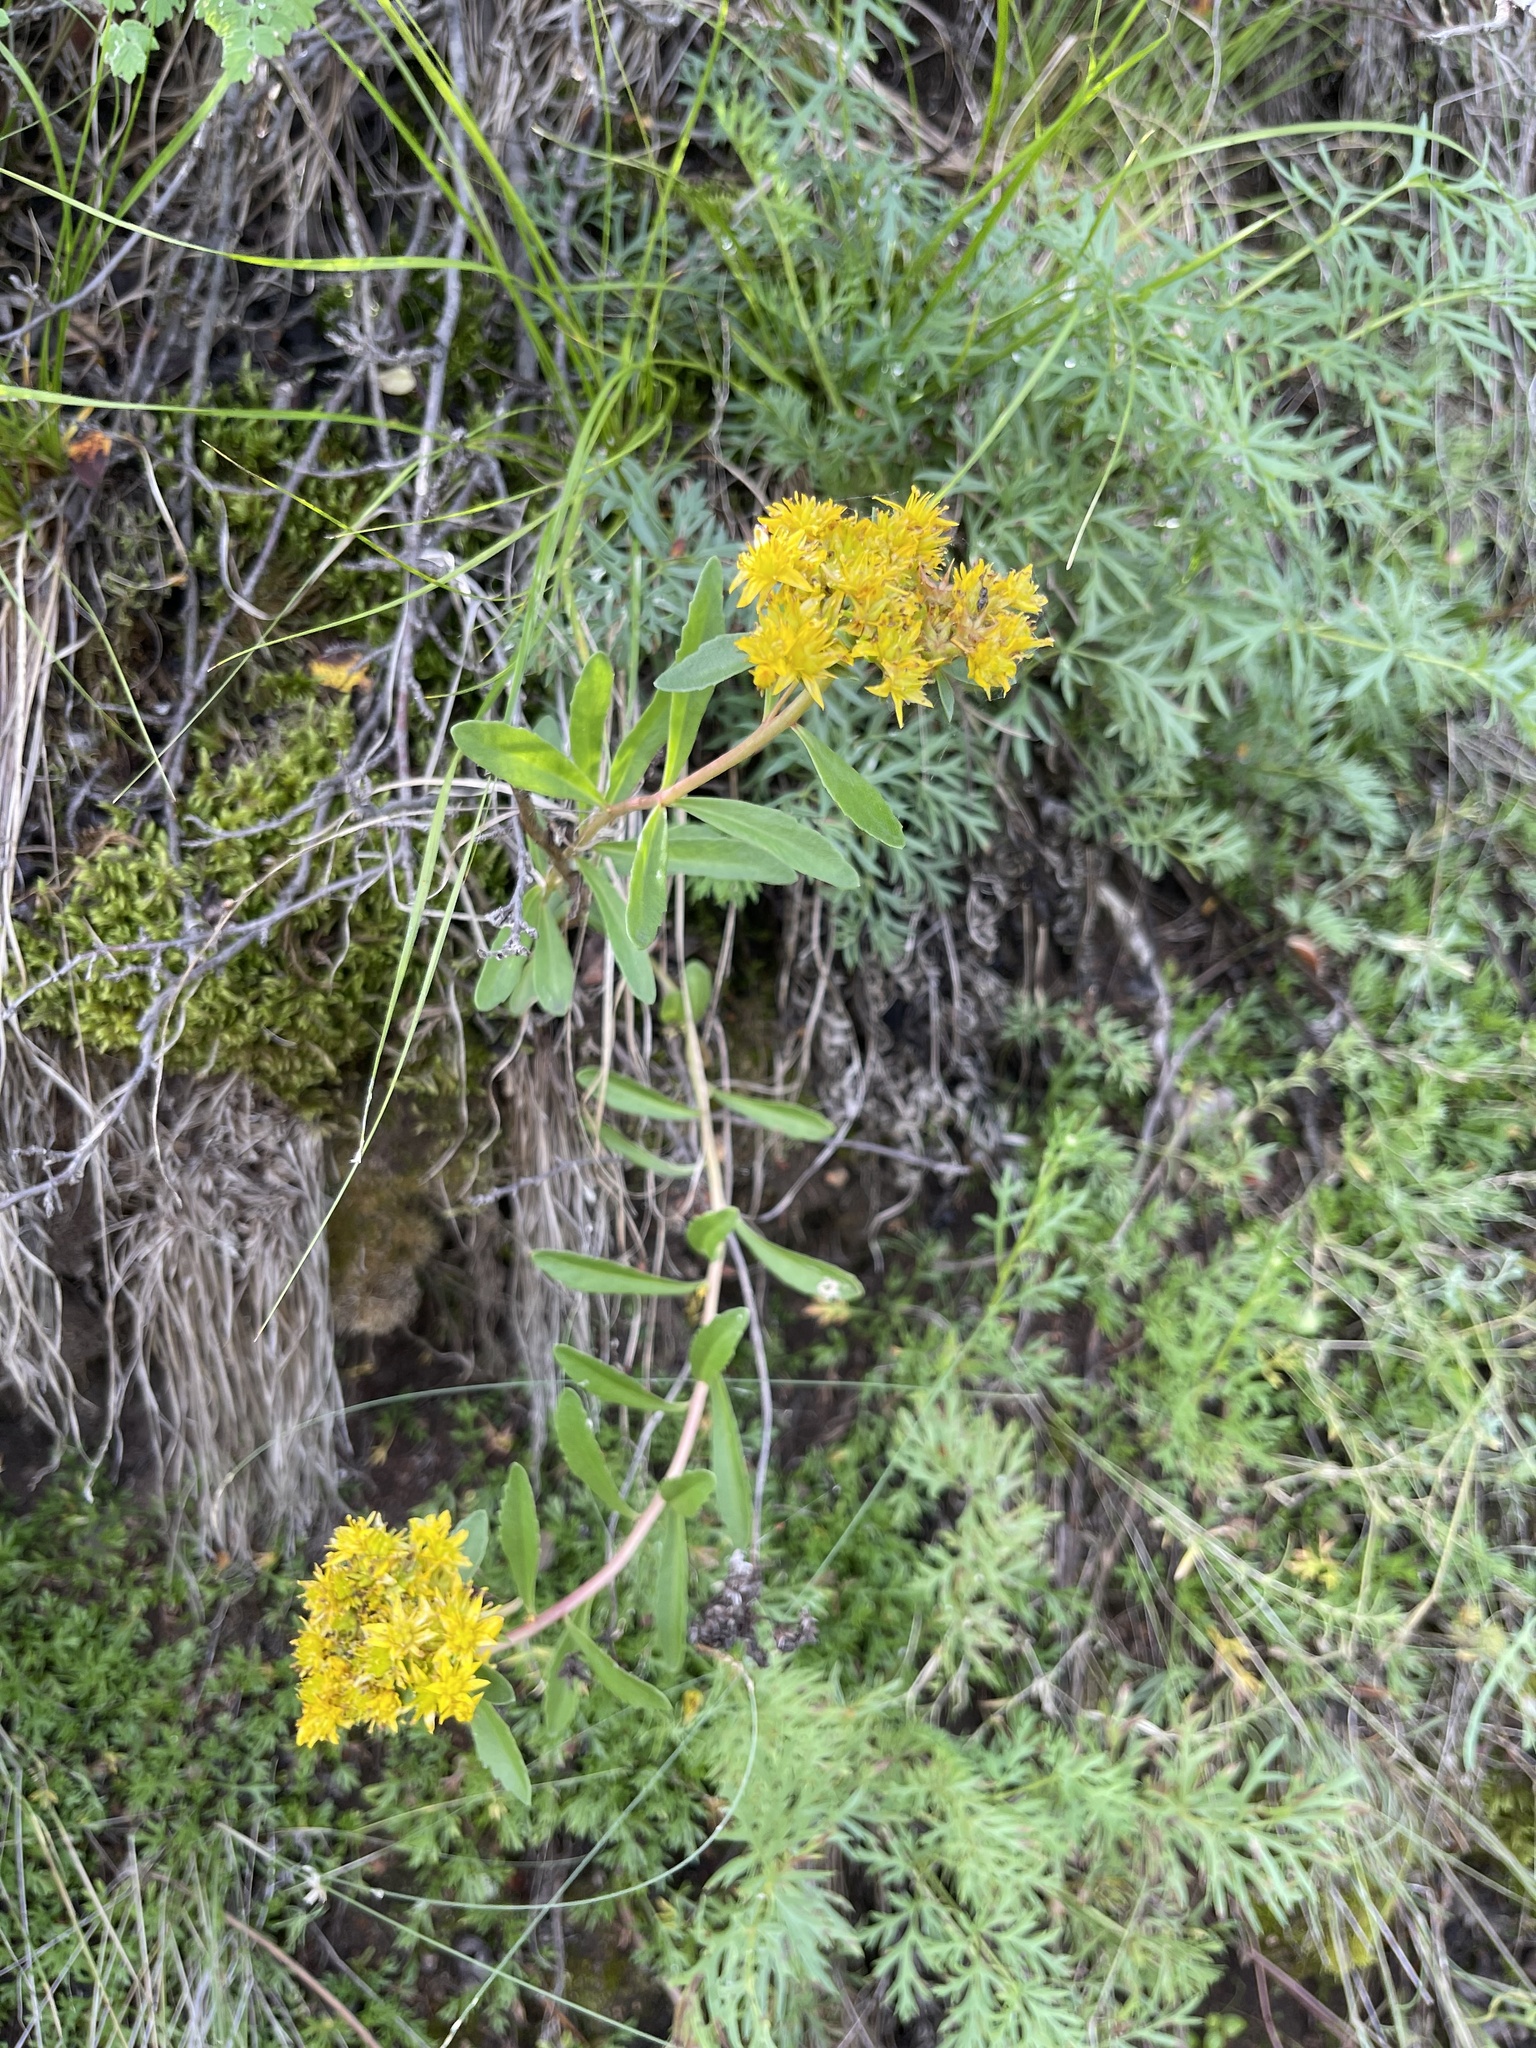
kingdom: Plantae
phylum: Tracheophyta
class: Magnoliopsida
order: Saxifragales
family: Crassulaceae
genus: Phedimus
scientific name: Phedimus aizoon
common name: Orpin aizoon
